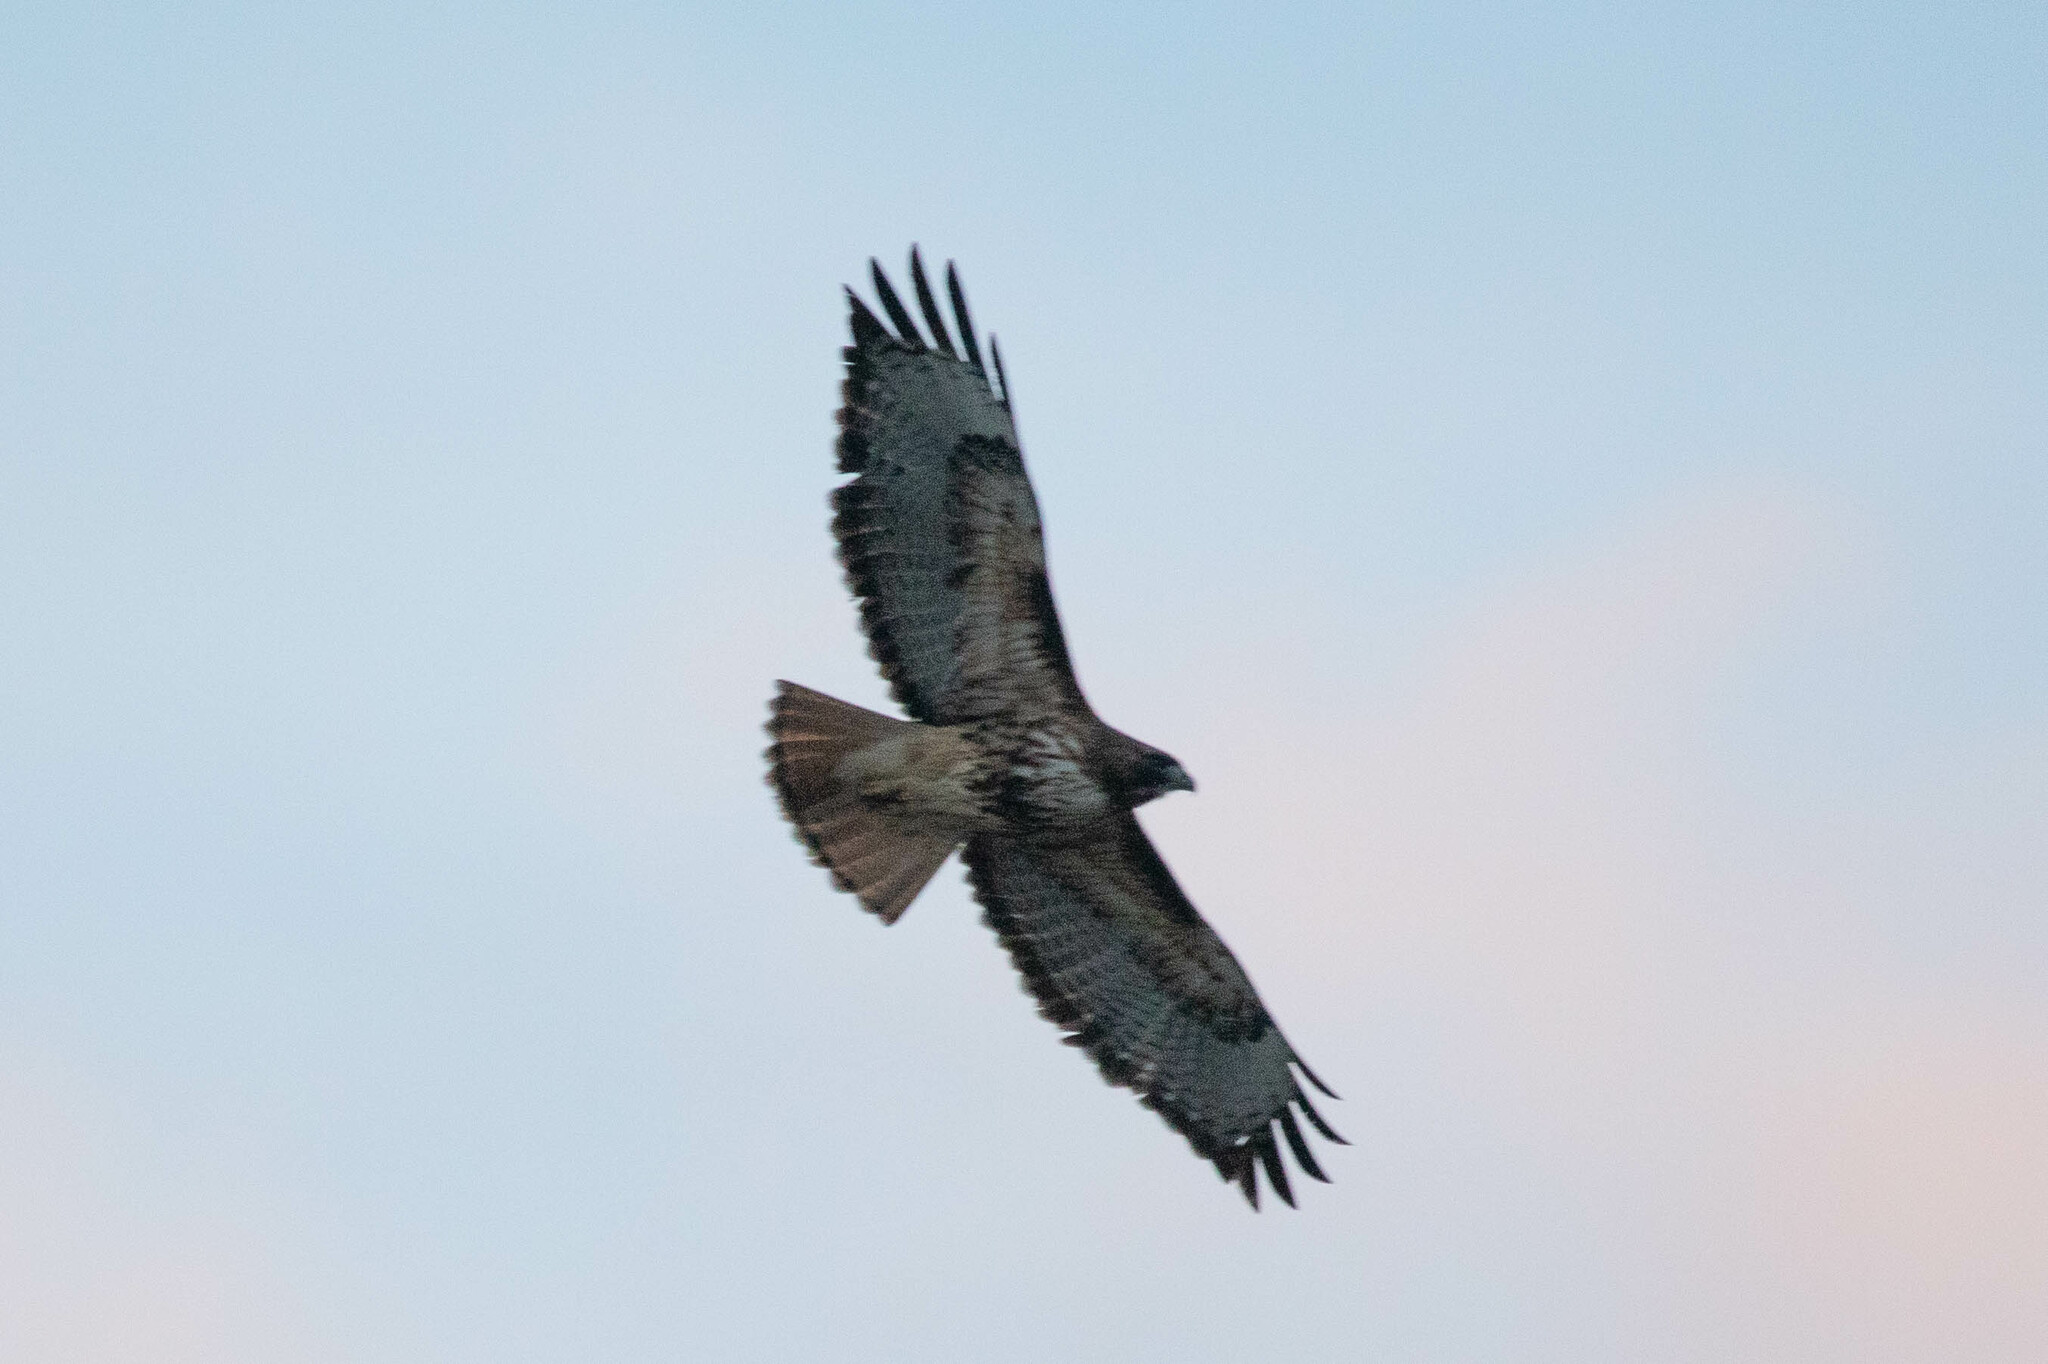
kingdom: Animalia
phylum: Chordata
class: Aves
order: Accipitriformes
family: Accipitridae
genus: Buteo
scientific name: Buteo jamaicensis
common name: Red-tailed hawk
